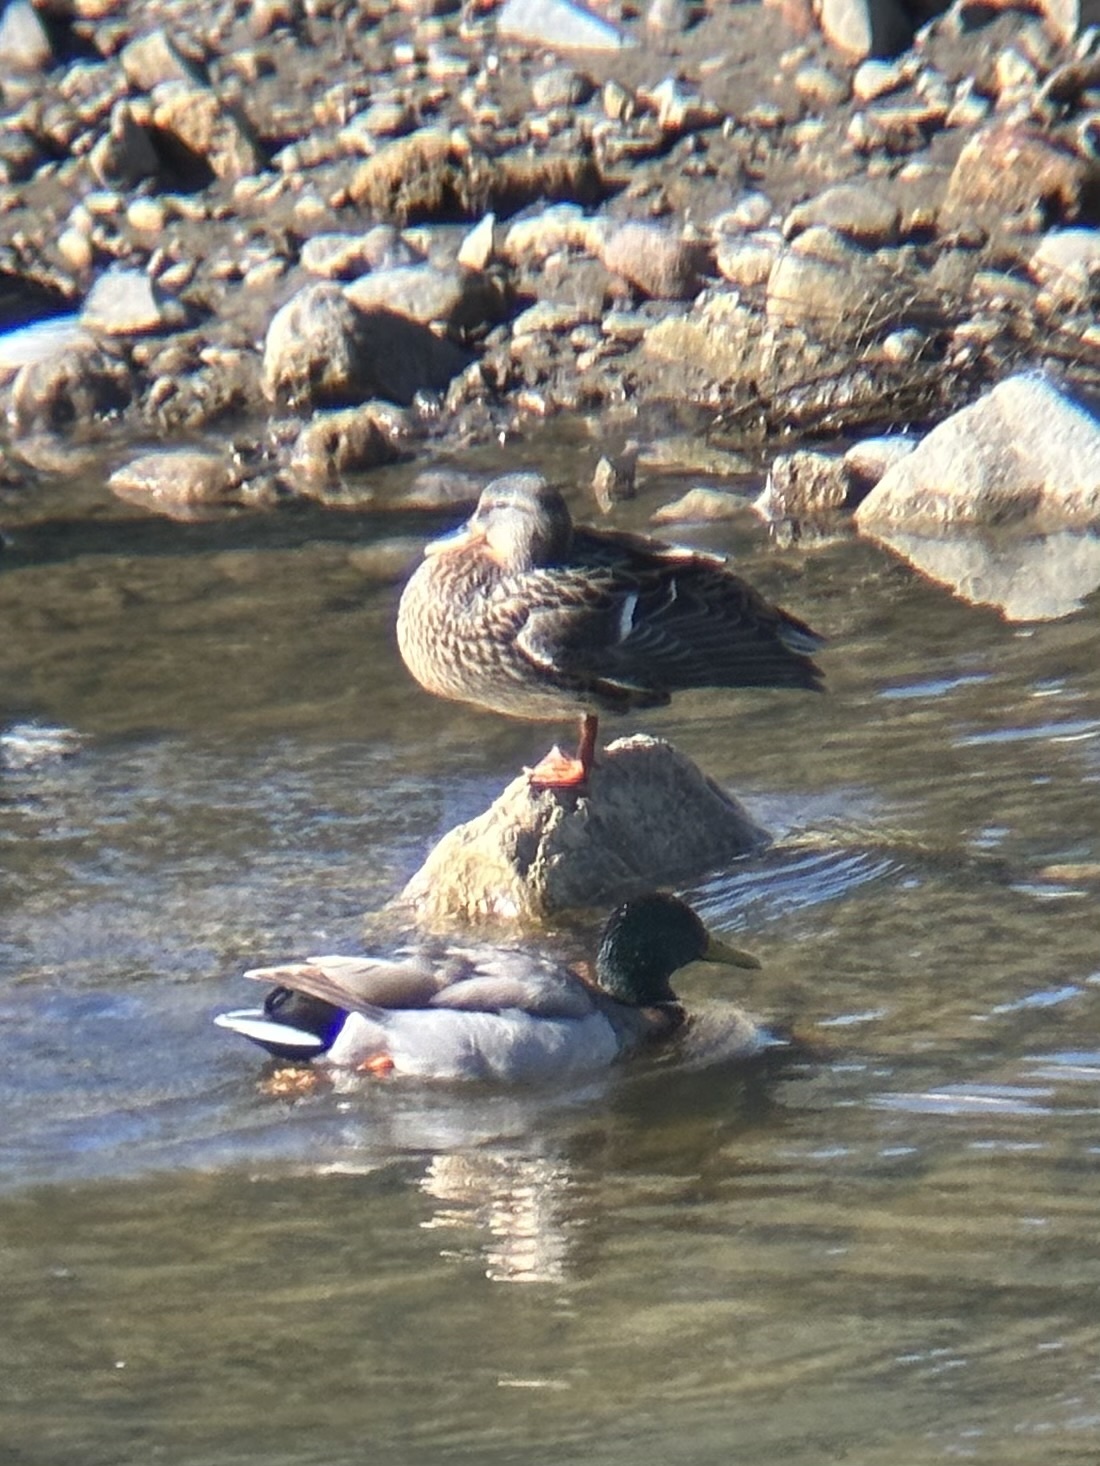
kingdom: Animalia
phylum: Chordata
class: Aves
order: Anseriformes
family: Anatidae
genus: Anas
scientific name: Anas platyrhynchos
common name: Mallard
